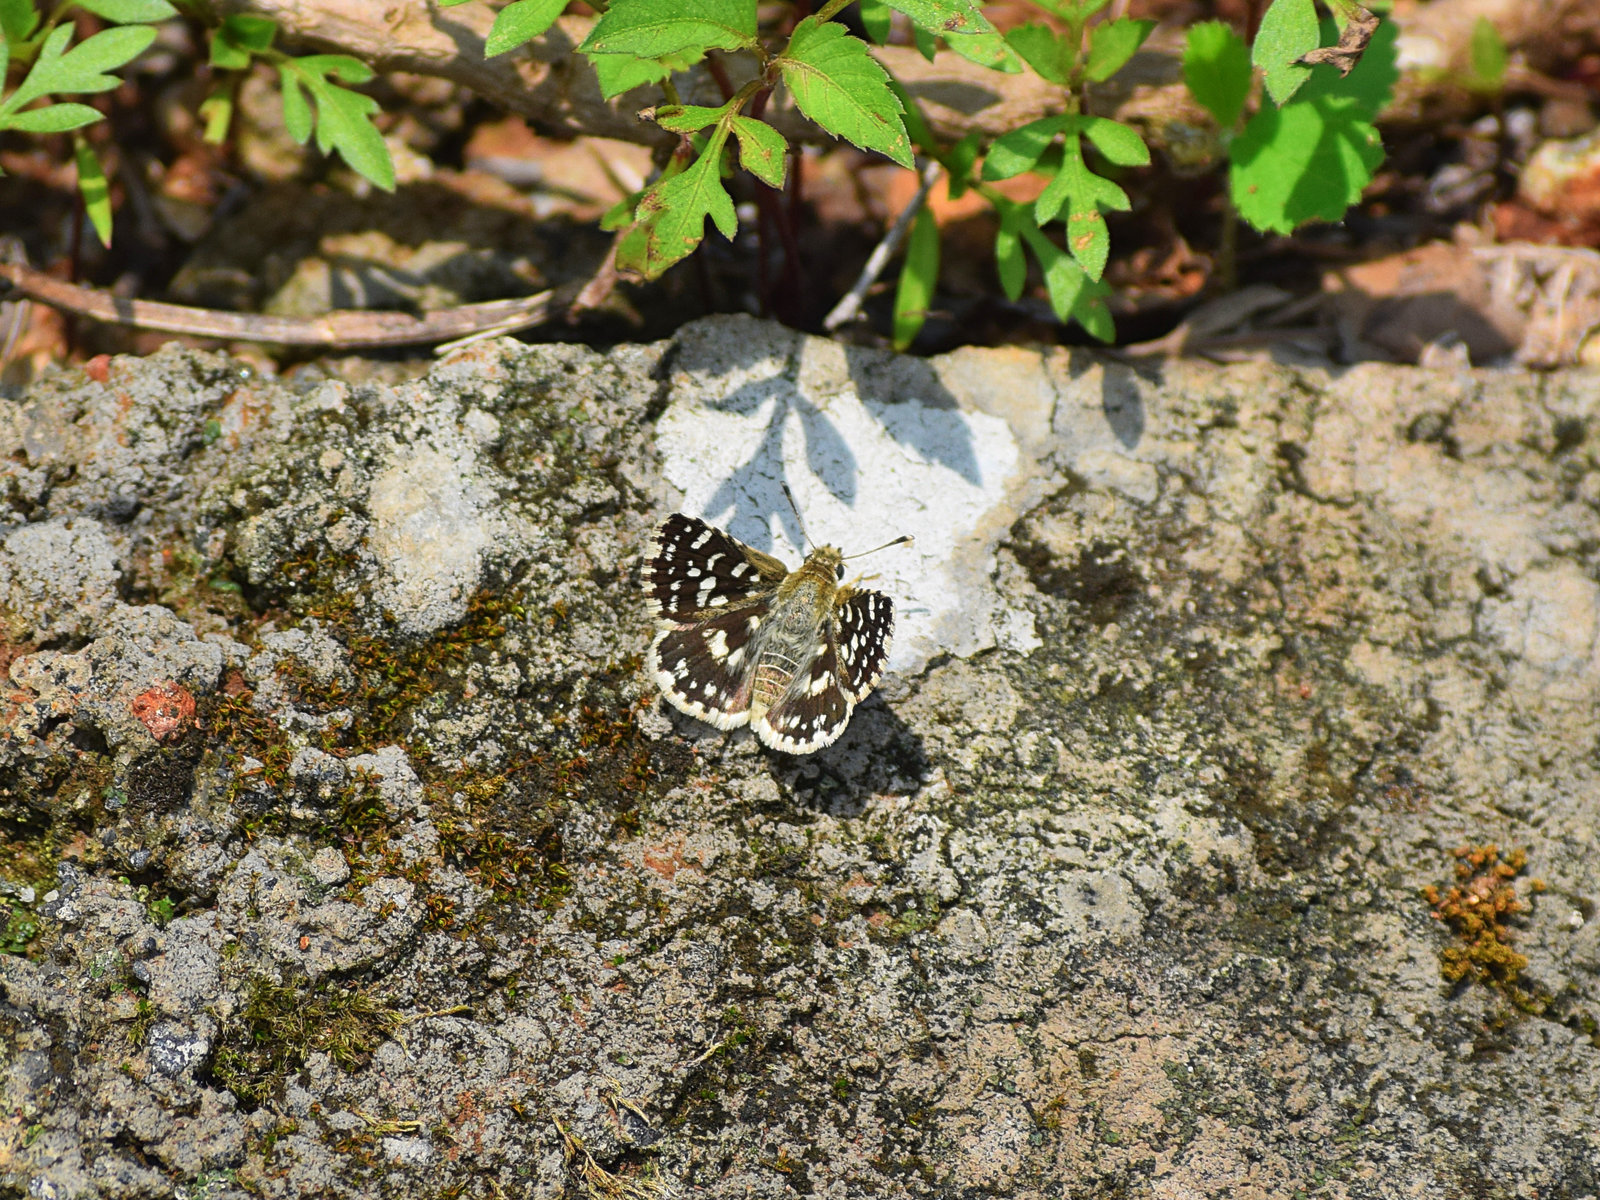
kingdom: Animalia
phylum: Arthropoda
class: Insecta
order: Lepidoptera
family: Hesperiidae
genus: Spialia
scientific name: Spialia galba
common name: Indian skipper
